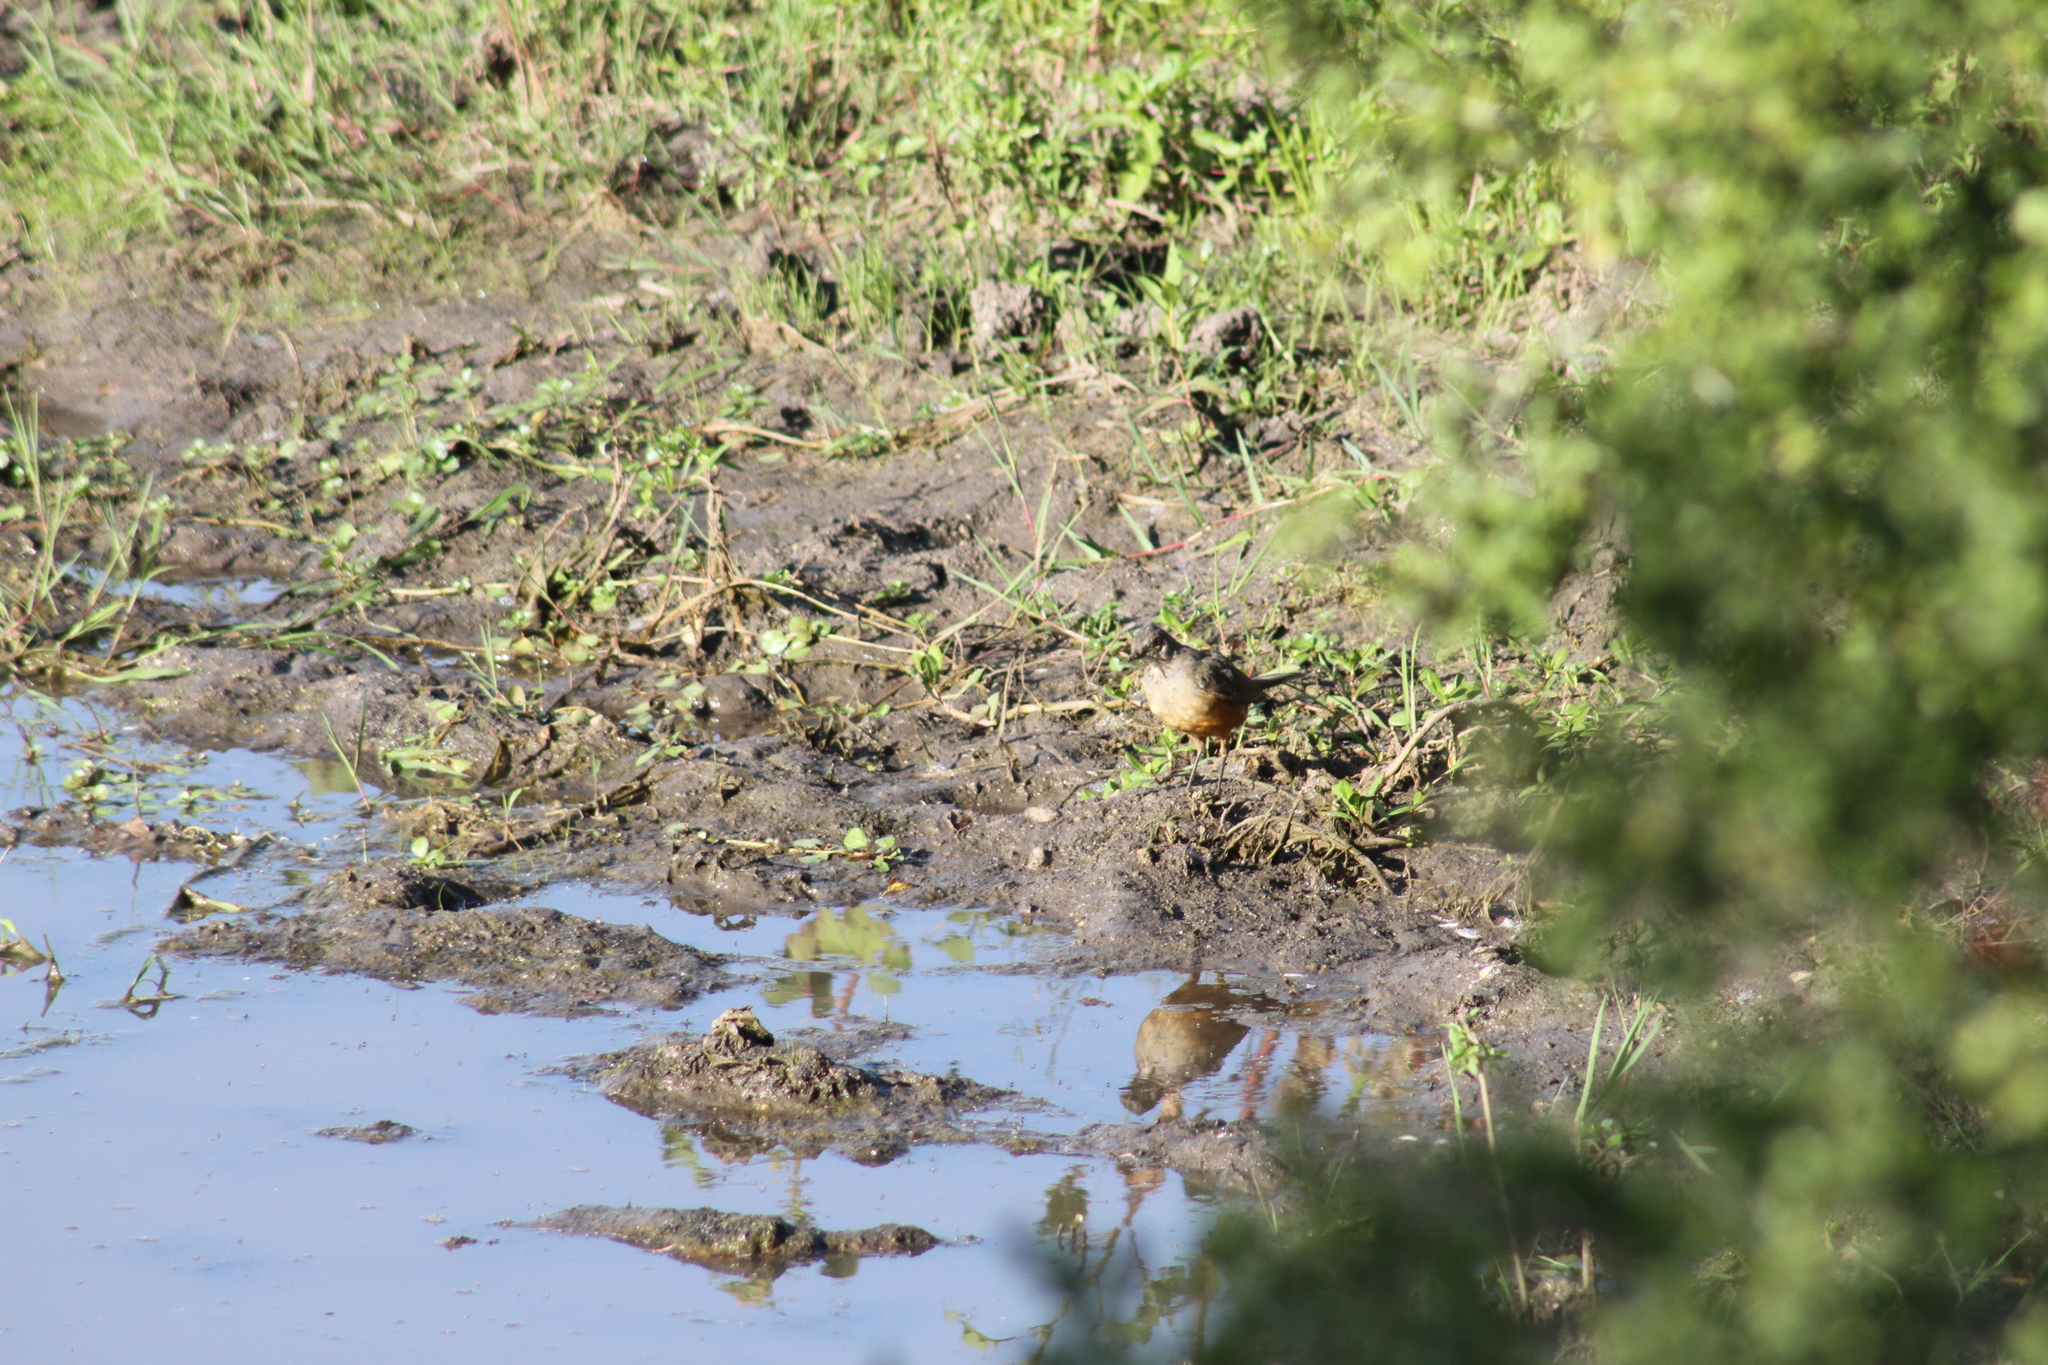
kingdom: Animalia
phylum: Chordata
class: Aves
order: Passeriformes
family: Turdidae
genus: Turdus
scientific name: Turdus rufiventris
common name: Rufous-bellied thrush
